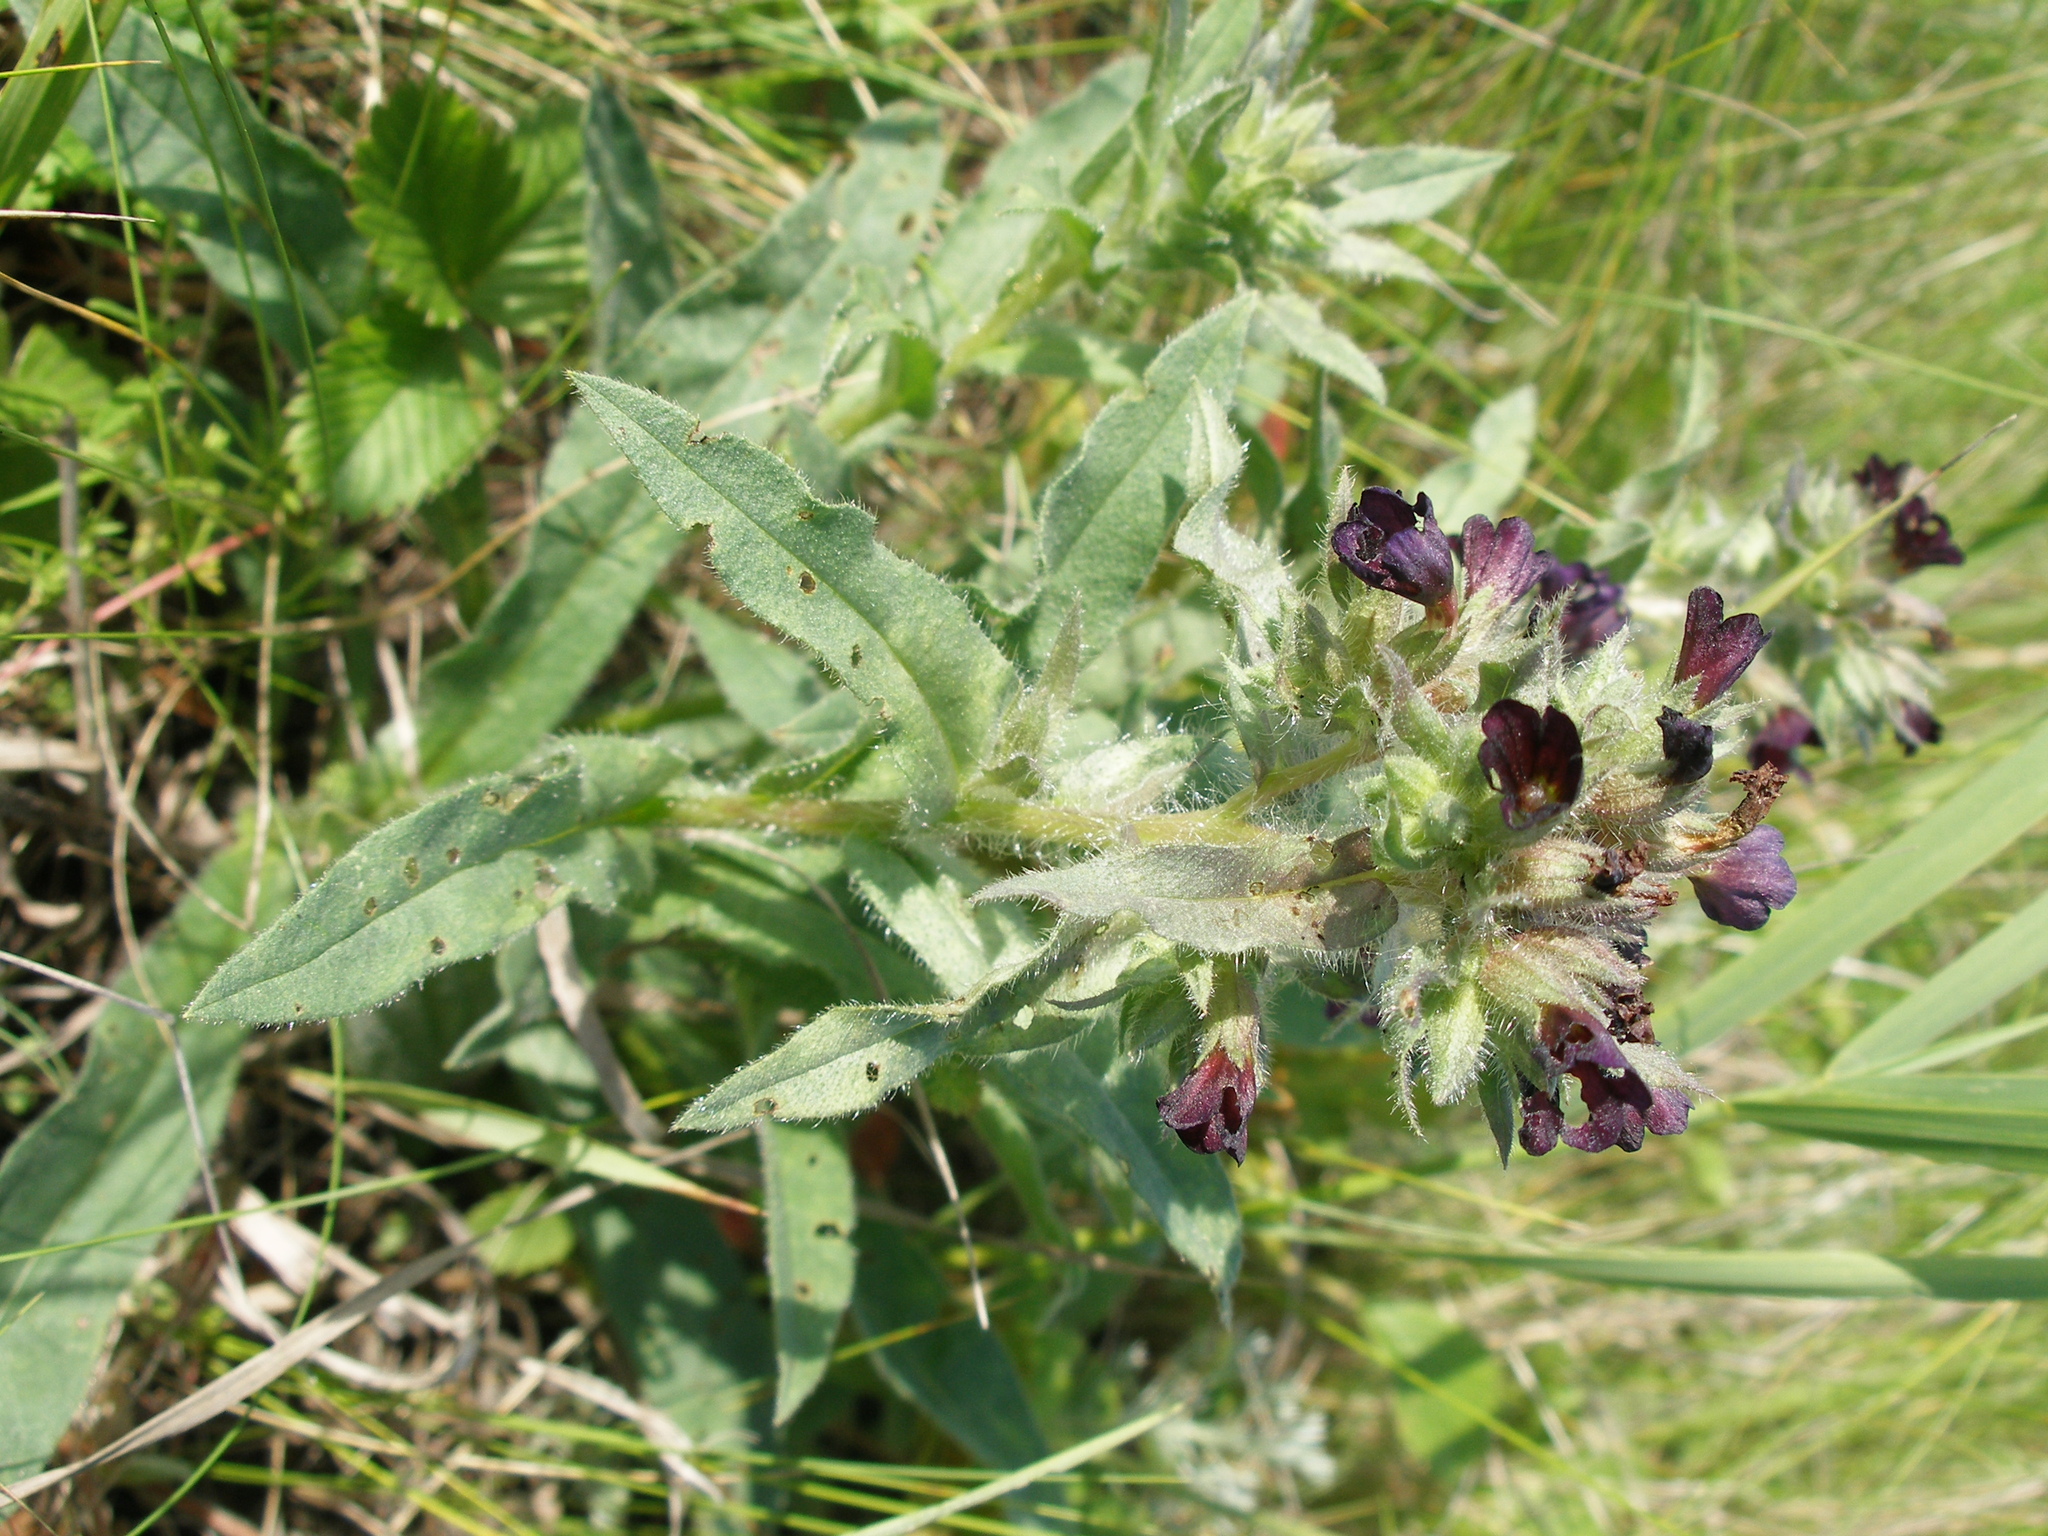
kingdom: Plantae
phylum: Tracheophyta
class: Magnoliopsida
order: Boraginales
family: Boraginaceae
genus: Nonea
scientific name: Nonea pulla
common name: Brown nonea
